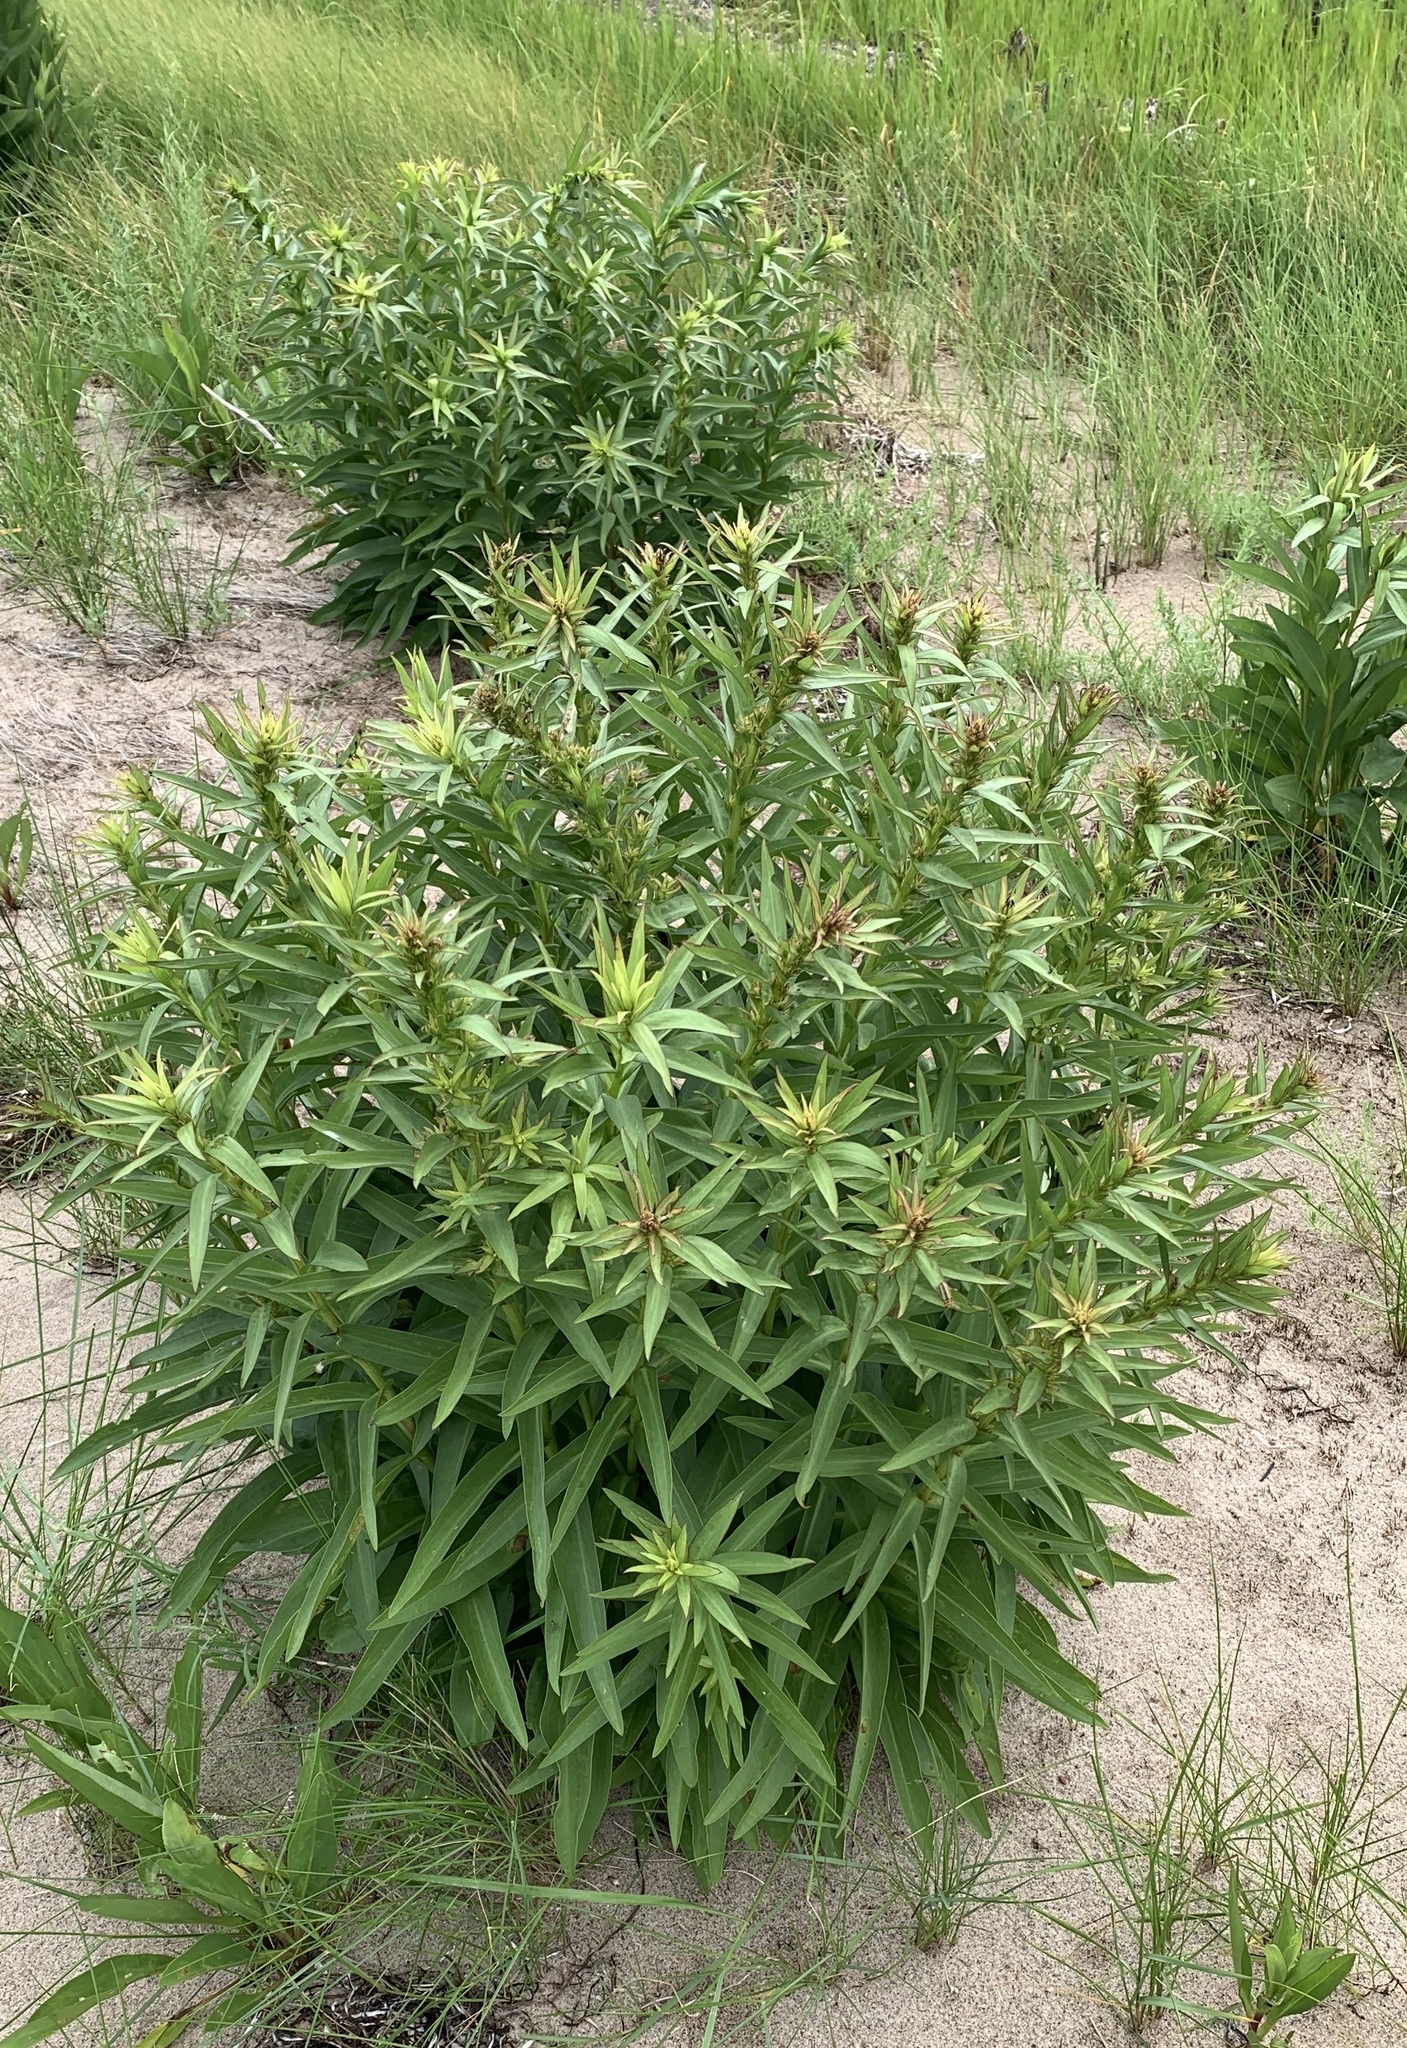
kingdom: Plantae
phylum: Tracheophyta
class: Magnoliopsida
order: Asterales
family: Asteraceae
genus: Solidago
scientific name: Solidago sempervirens
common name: Salt-marsh goldenrod
